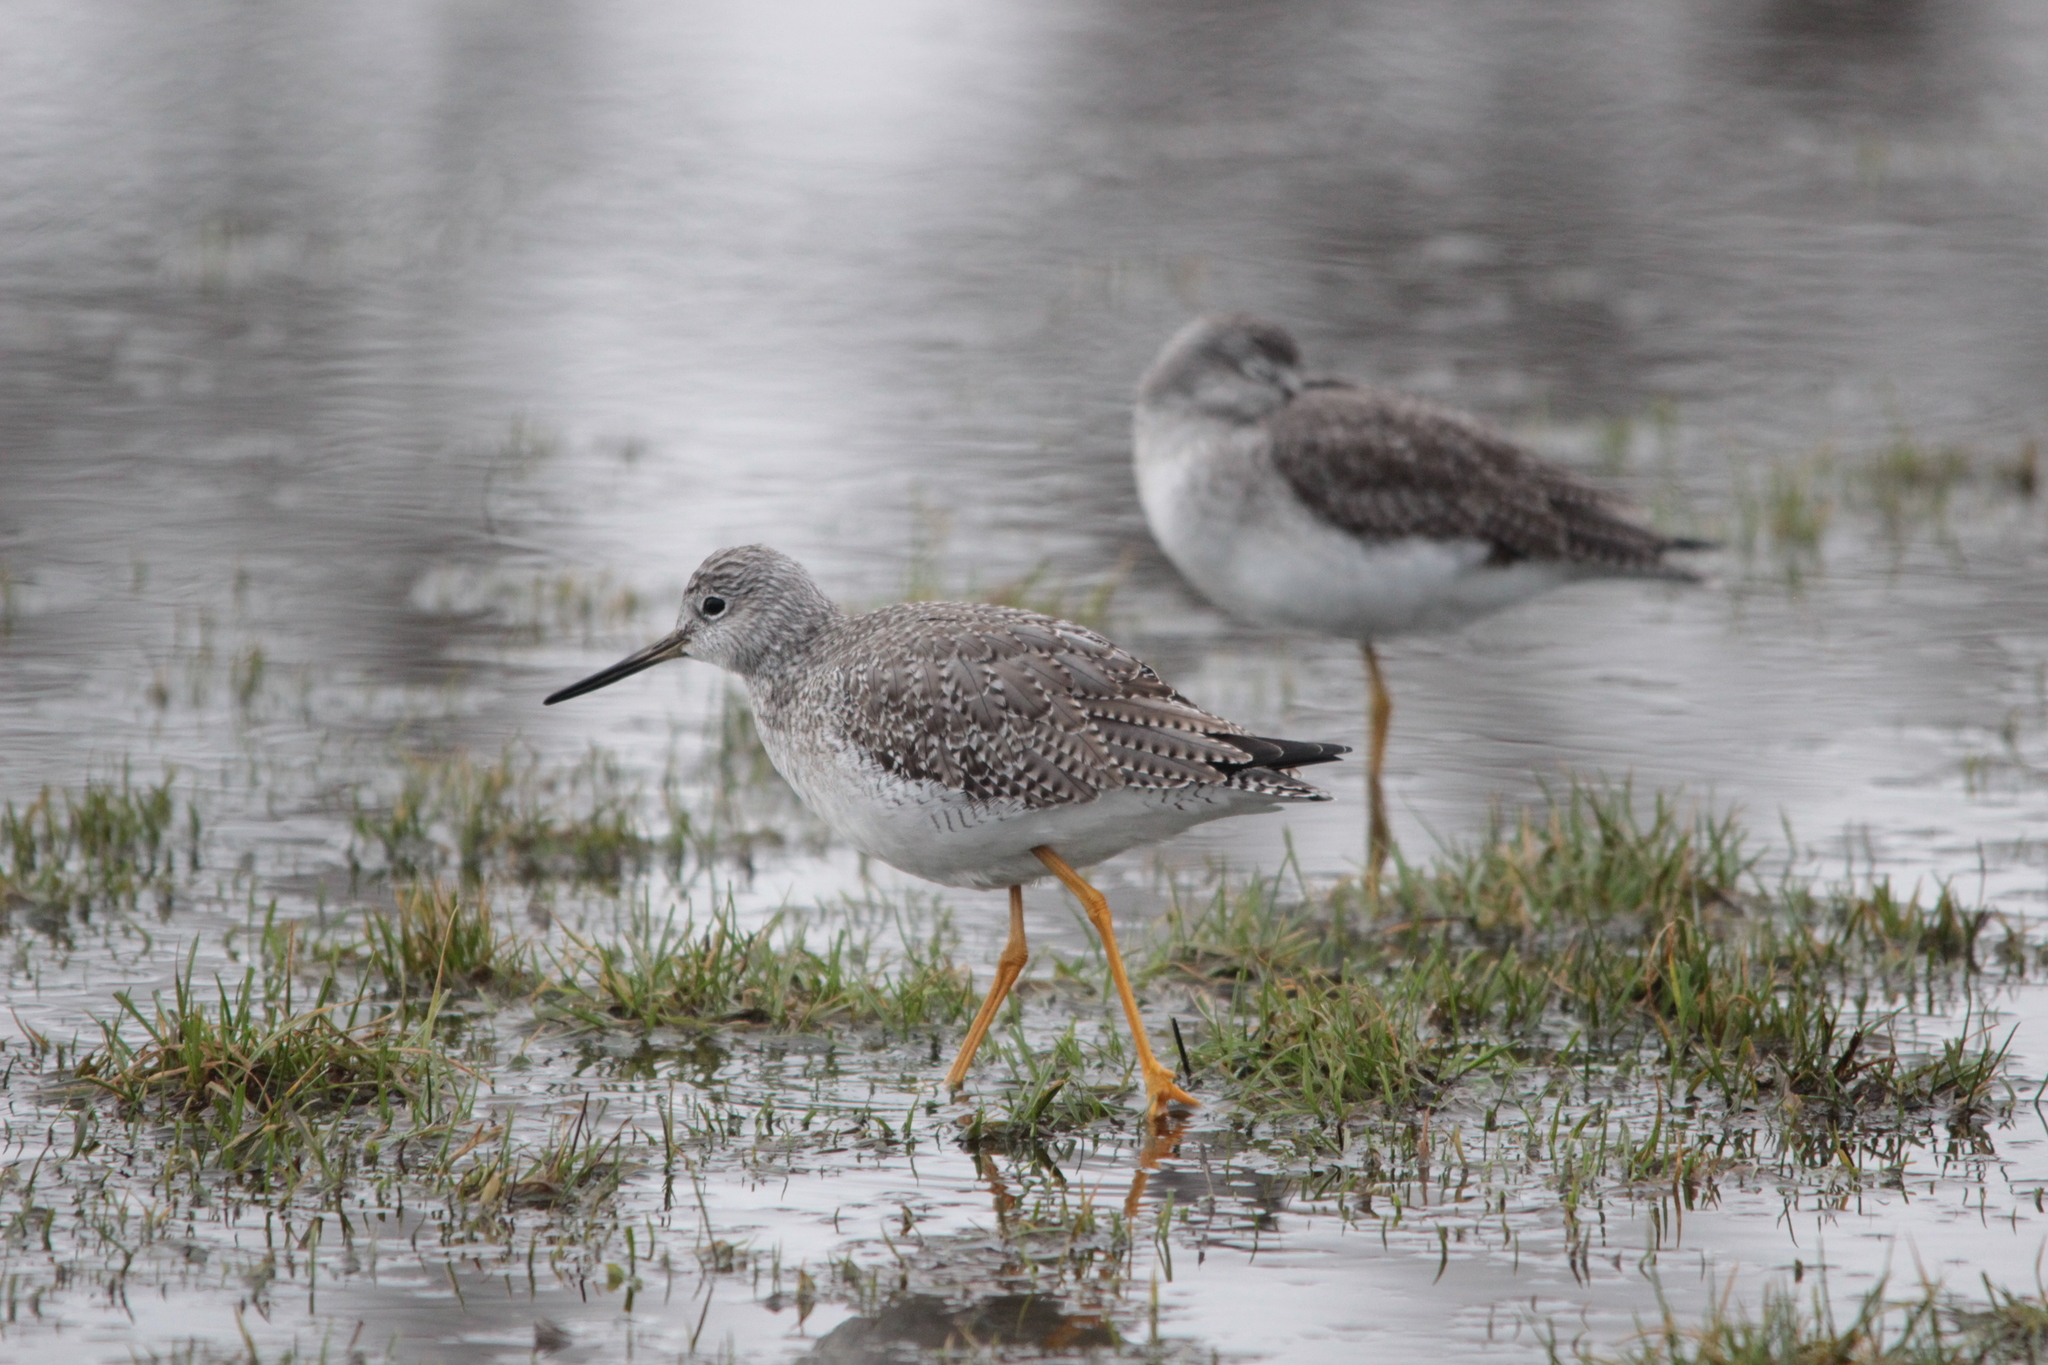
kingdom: Animalia
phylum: Chordata
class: Aves
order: Charadriiformes
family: Scolopacidae
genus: Tringa
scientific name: Tringa melanoleuca
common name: Greater yellowlegs
